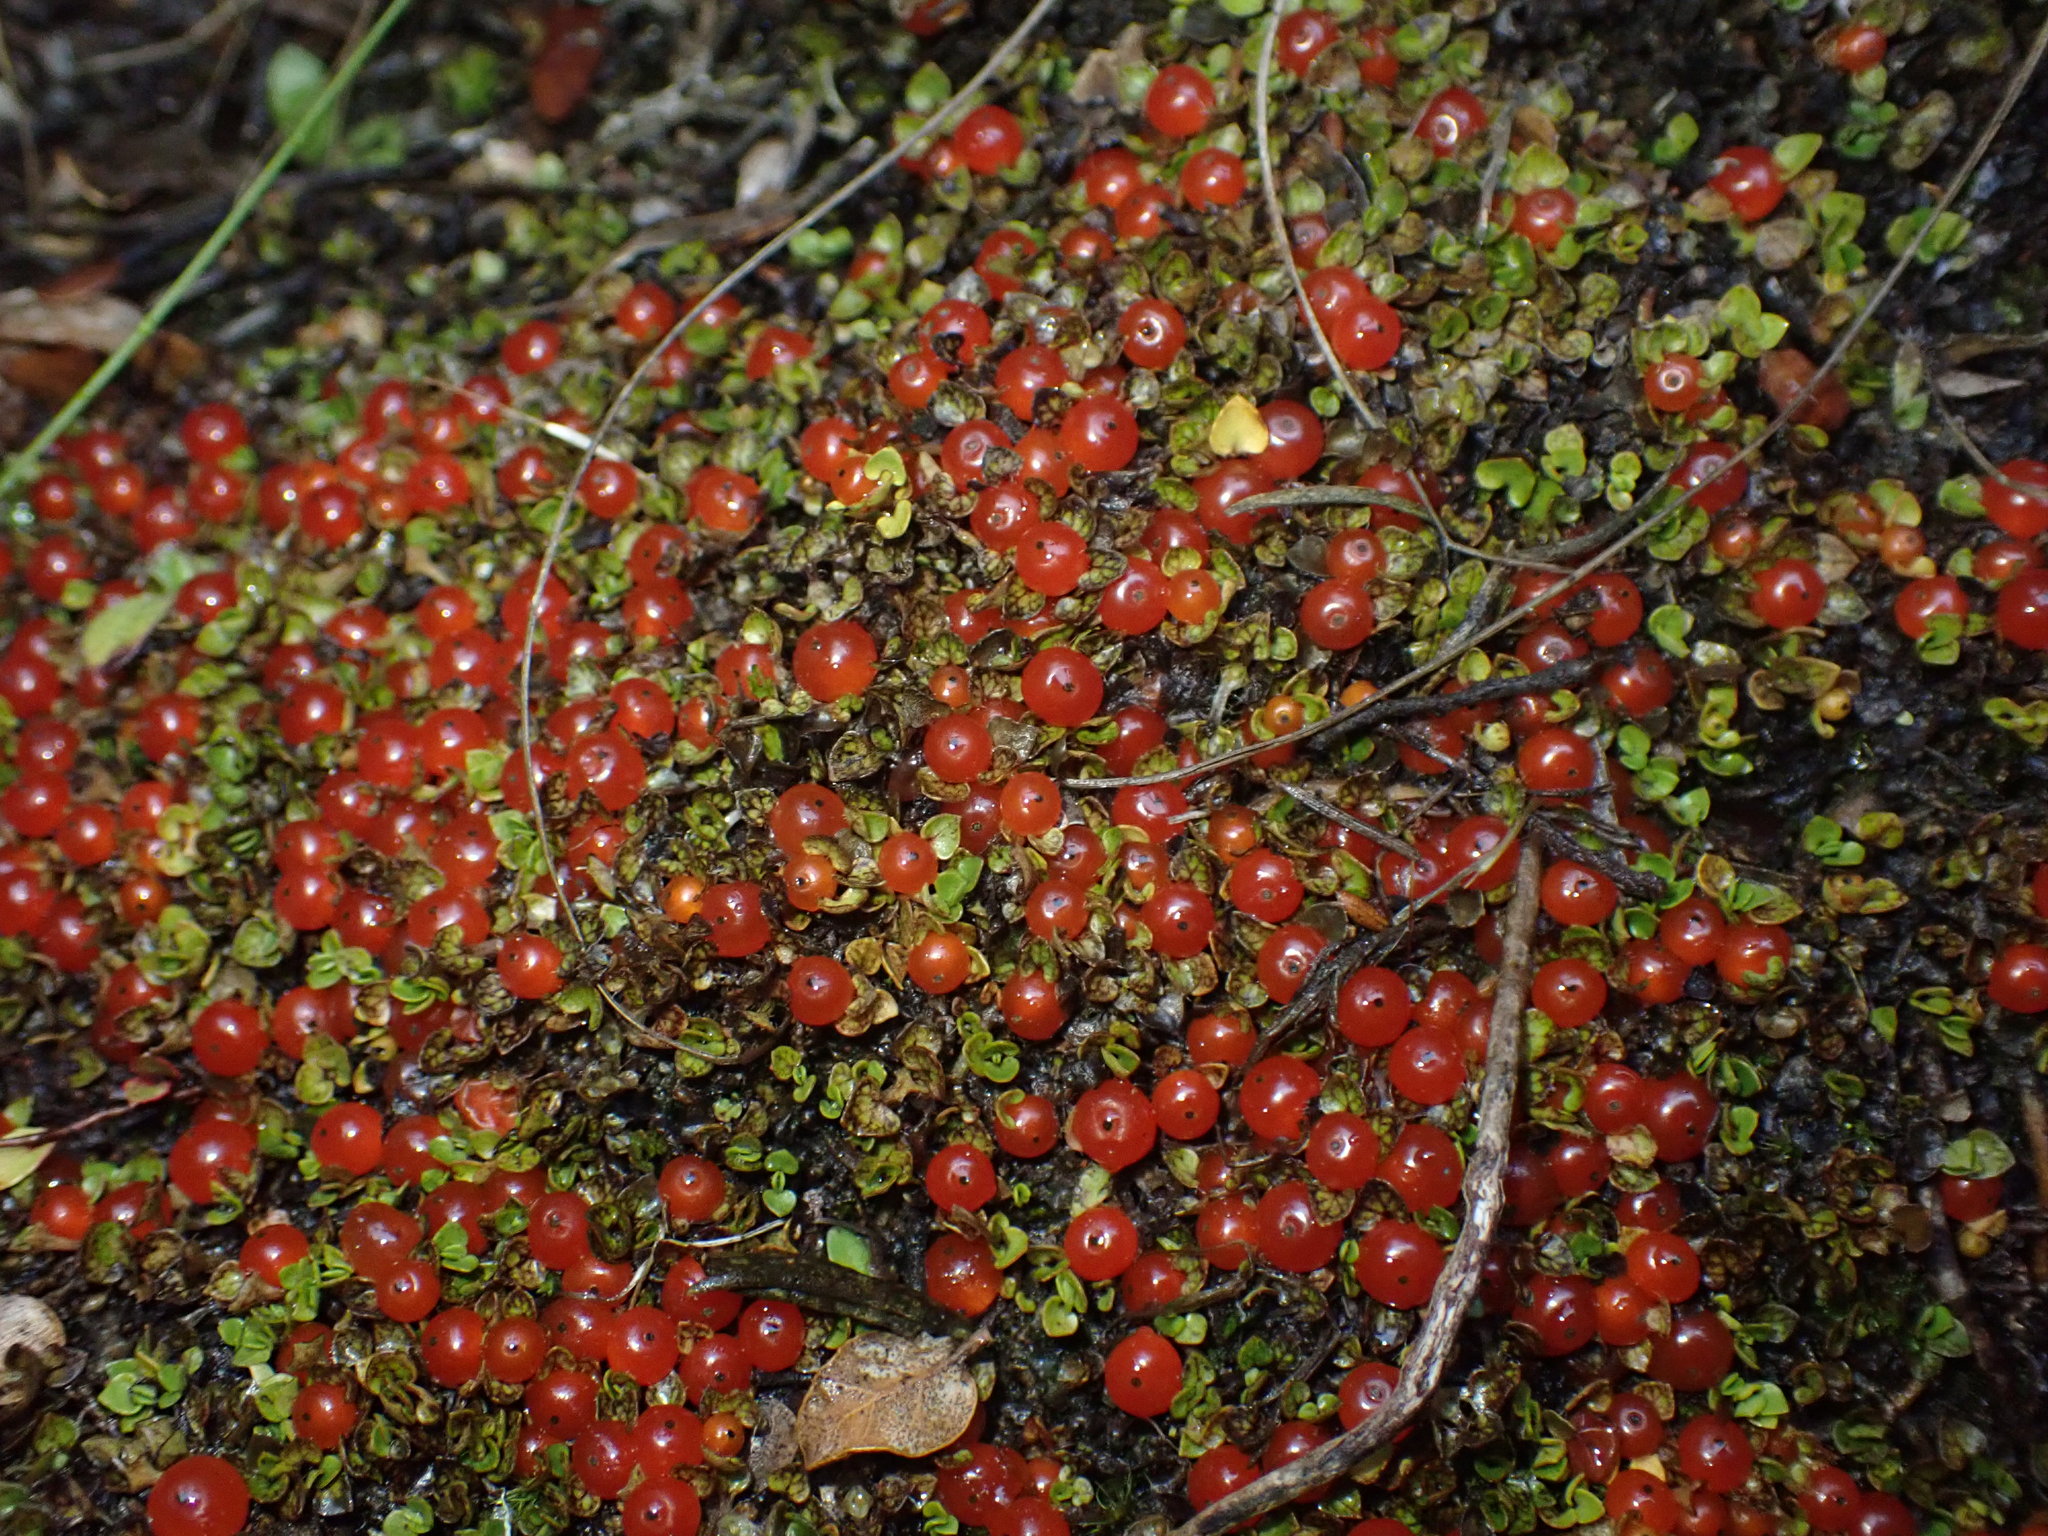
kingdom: Plantae
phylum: Tracheophyta
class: Magnoliopsida
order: Gentianales
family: Rubiaceae
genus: Nertera
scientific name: Nertera granadensis
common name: Beadplant
